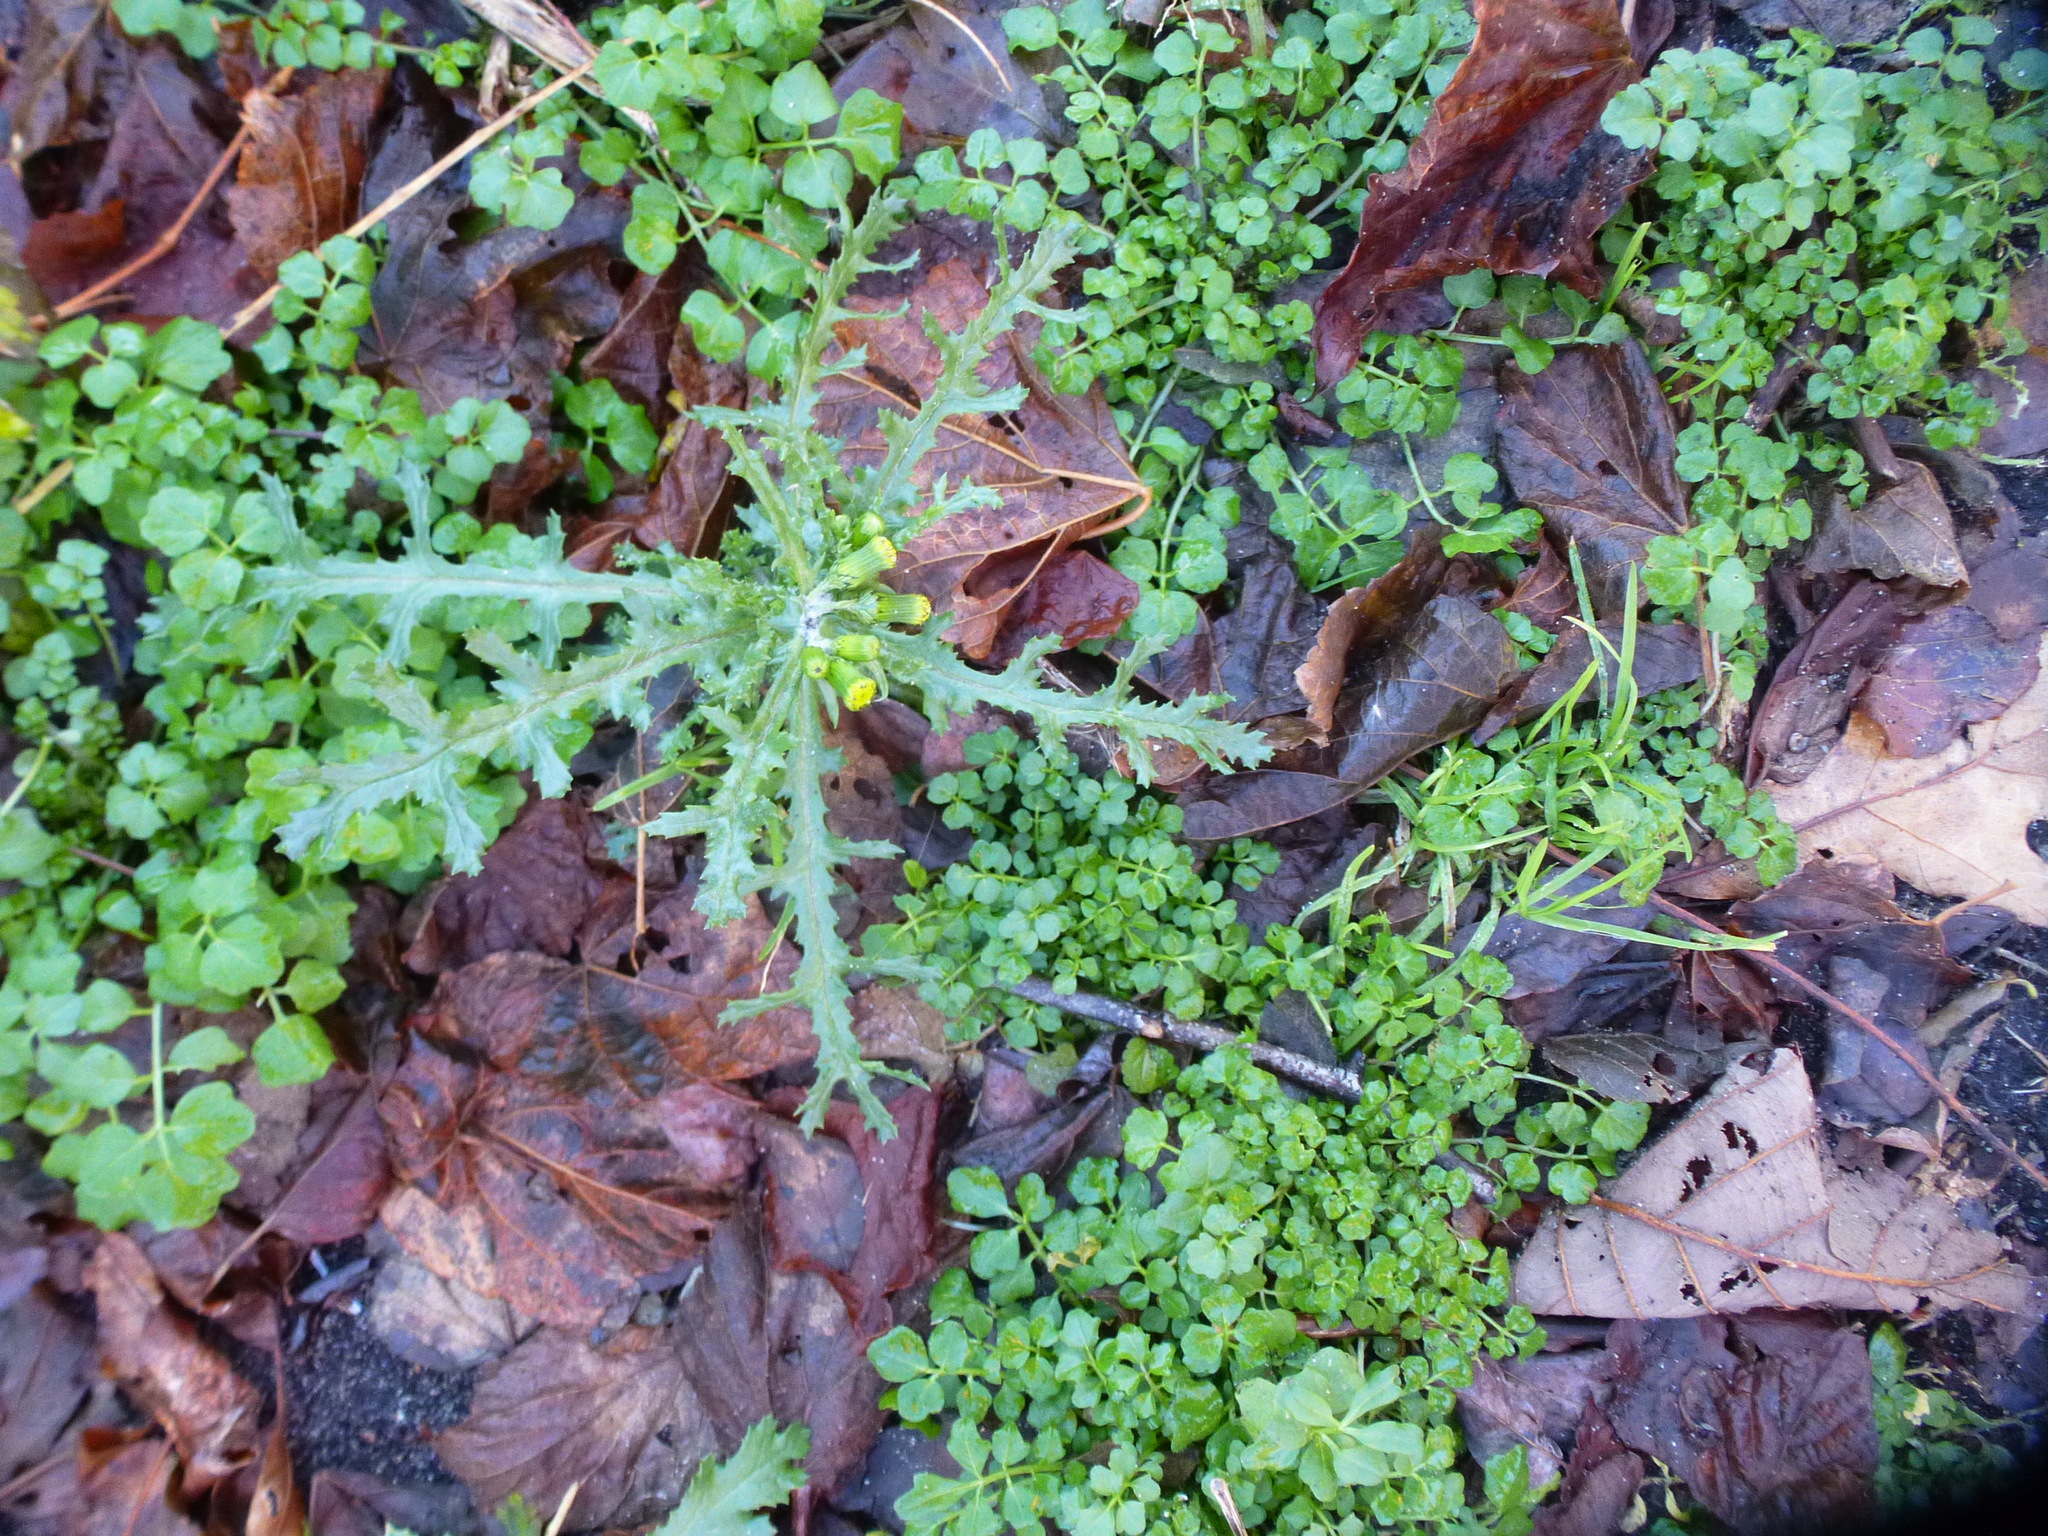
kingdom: Plantae
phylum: Tracheophyta
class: Magnoliopsida
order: Asterales
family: Asteraceae
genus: Senecio
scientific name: Senecio vulgaris
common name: Old-man-in-the-spring
